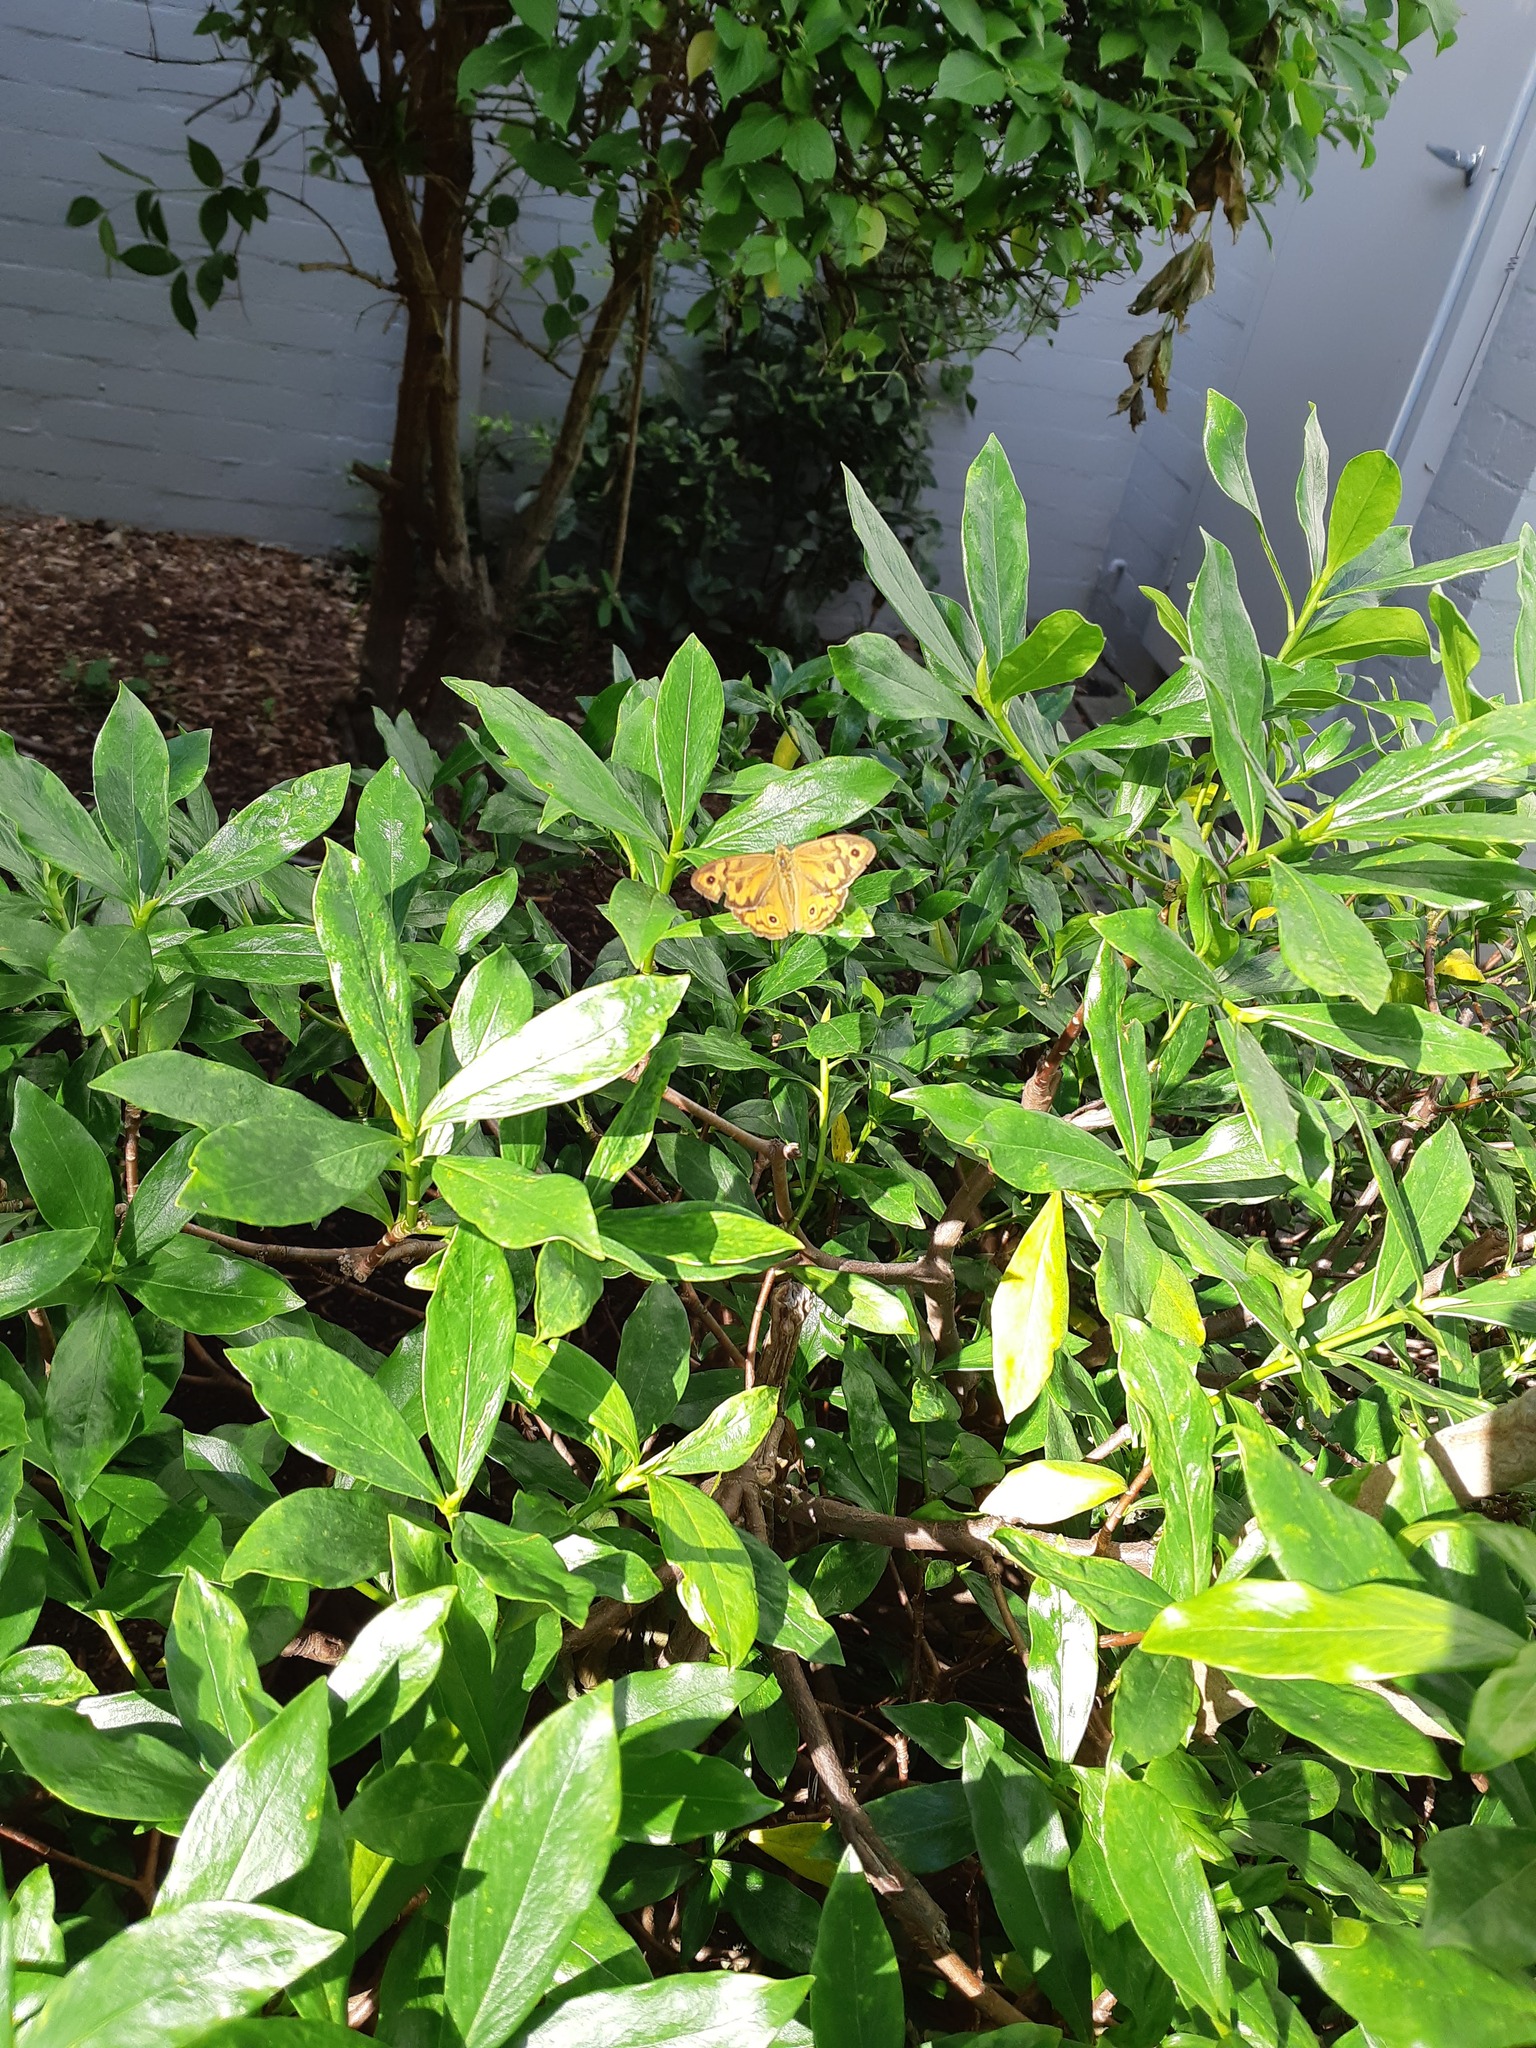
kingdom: Animalia
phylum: Arthropoda
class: Insecta
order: Lepidoptera
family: Nymphalidae
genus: Heteronympha
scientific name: Heteronympha merope
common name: Common brown
